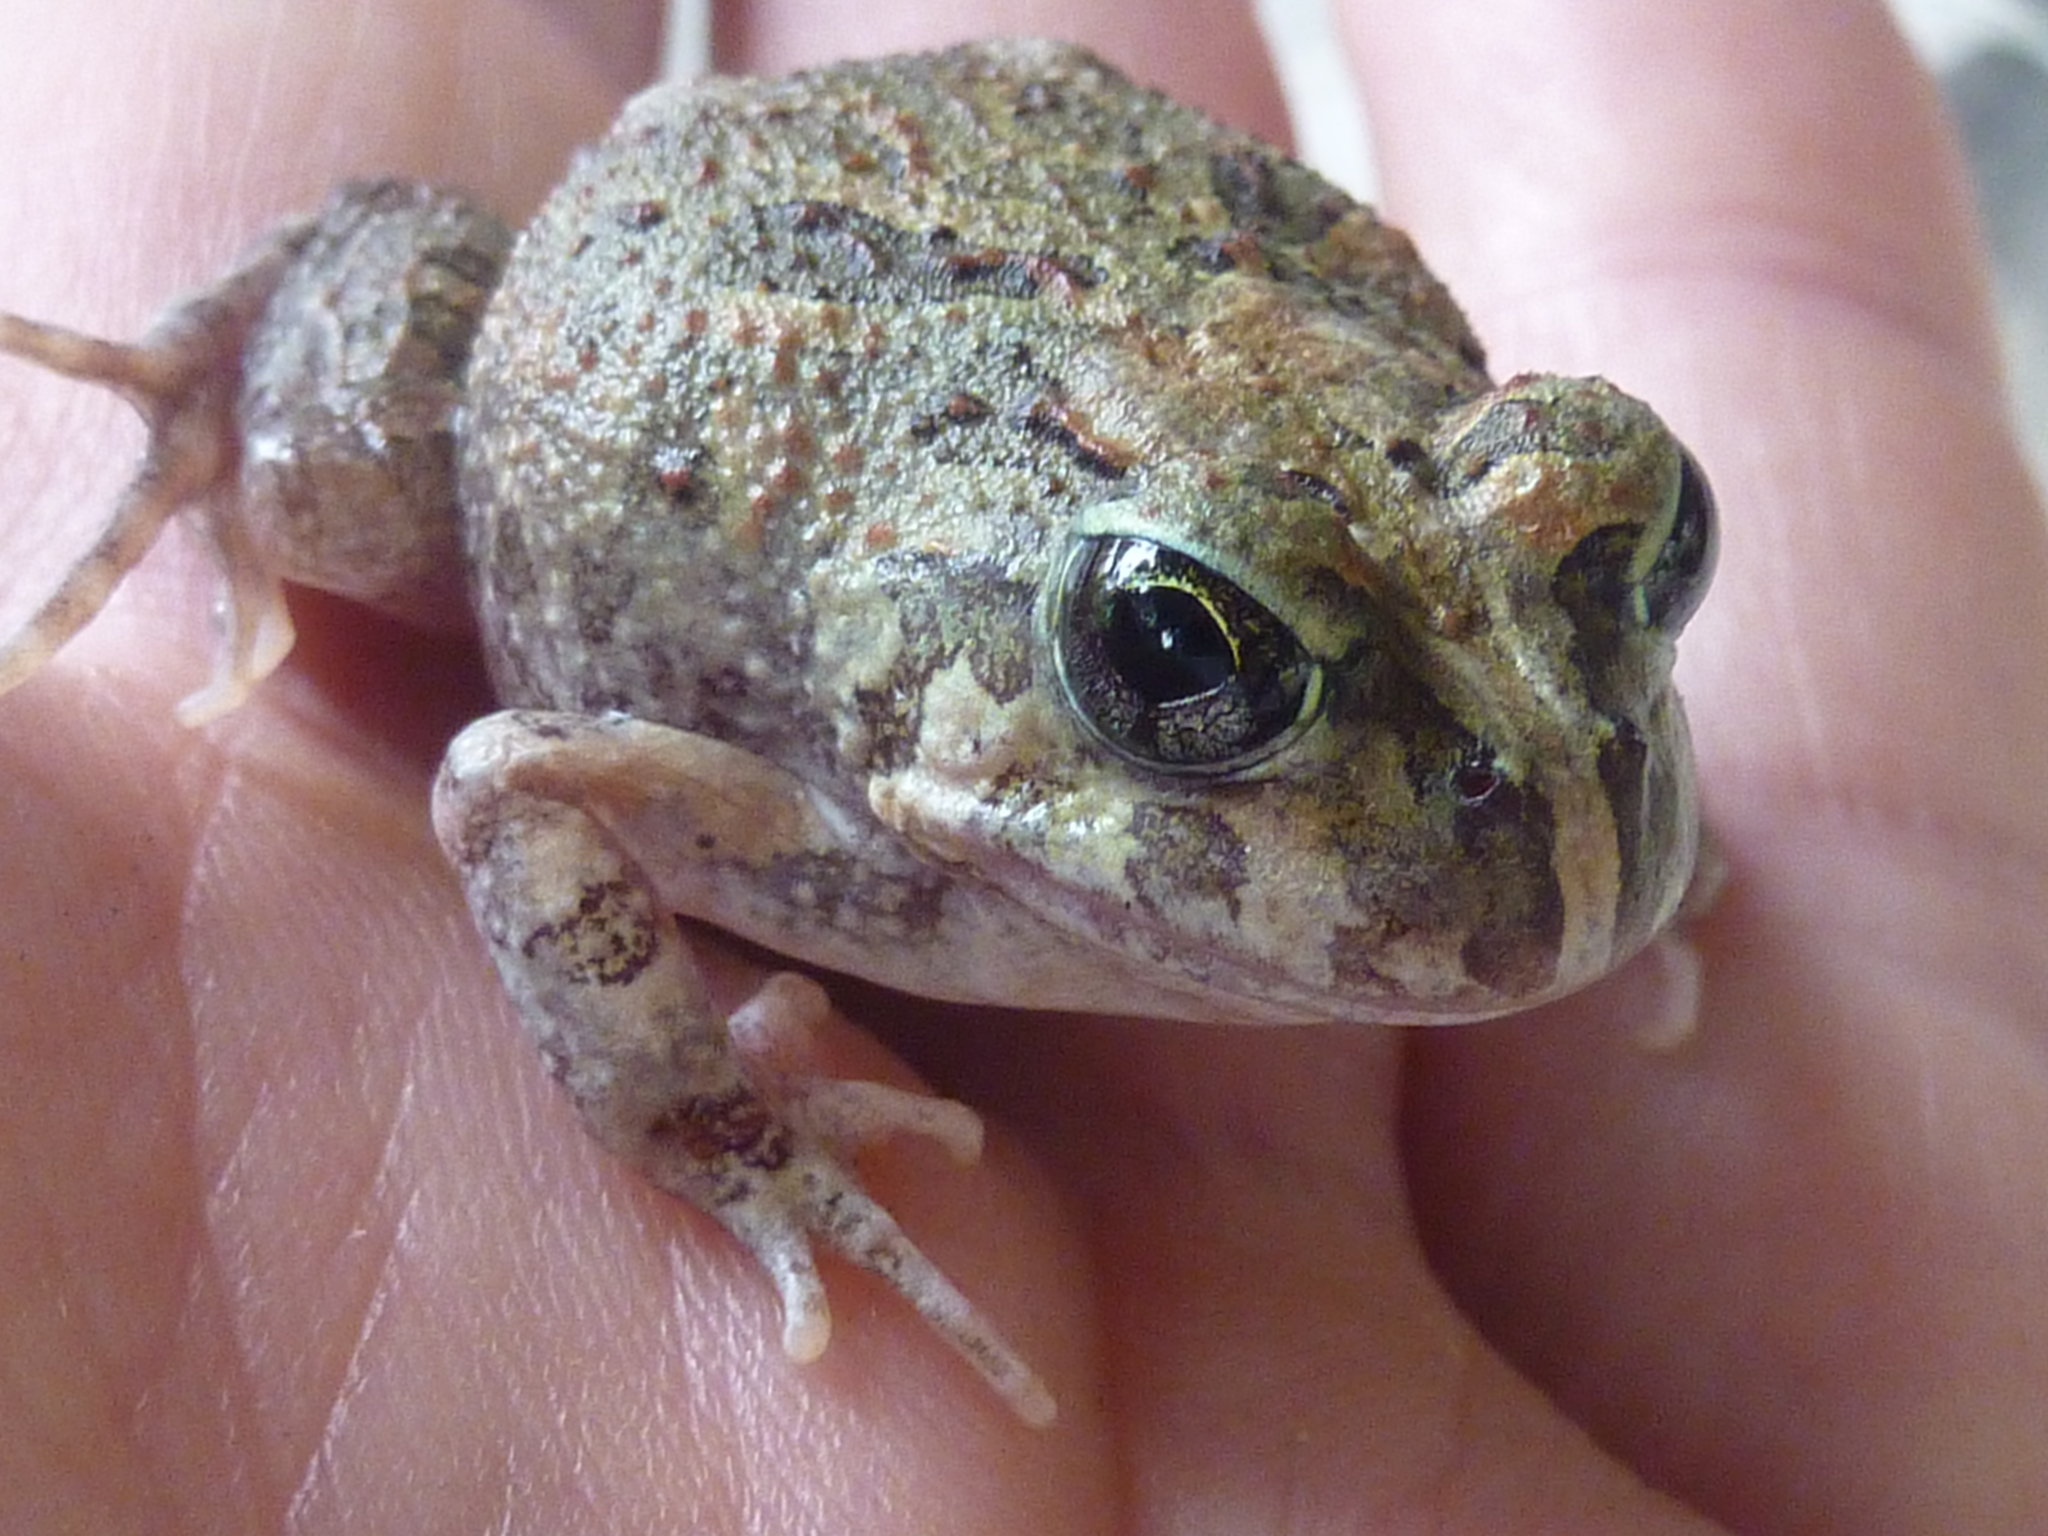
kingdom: Animalia
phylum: Chordata
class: Amphibia
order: Anura
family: Limnodynastidae
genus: Platyplectrum
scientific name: Platyplectrum ornatum
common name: Ornate burrowing frog
